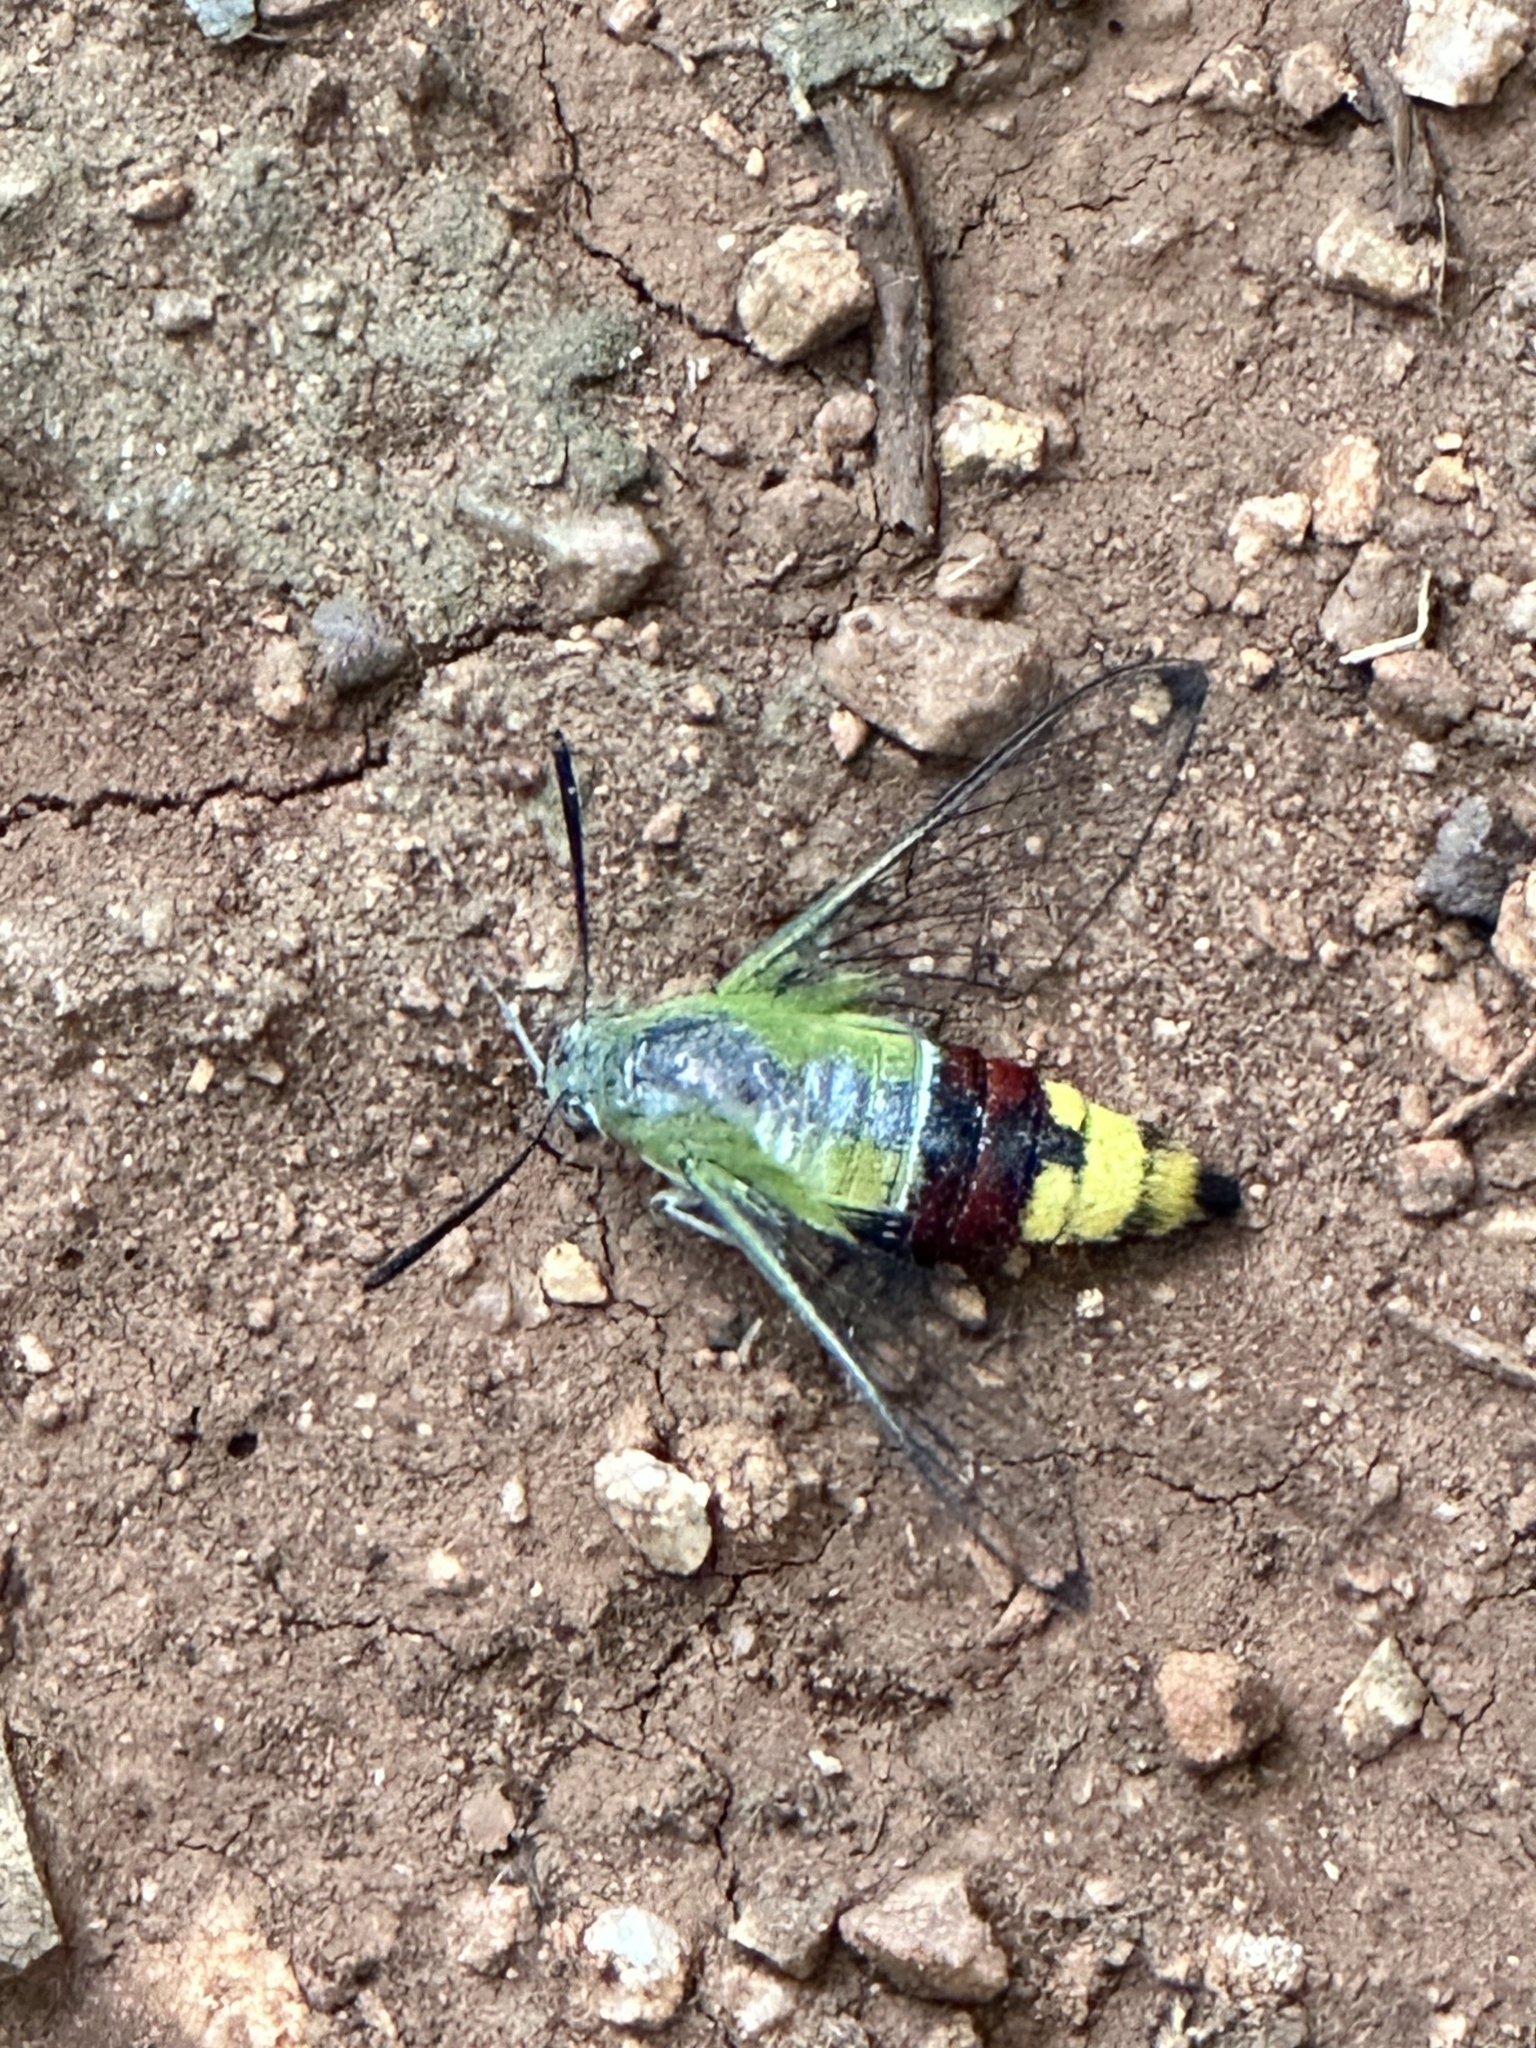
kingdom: Animalia
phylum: Arthropoda
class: Insecta
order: Lepidoptera
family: Sphingidae
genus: Cephonodes
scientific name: Cephonodes hylas
